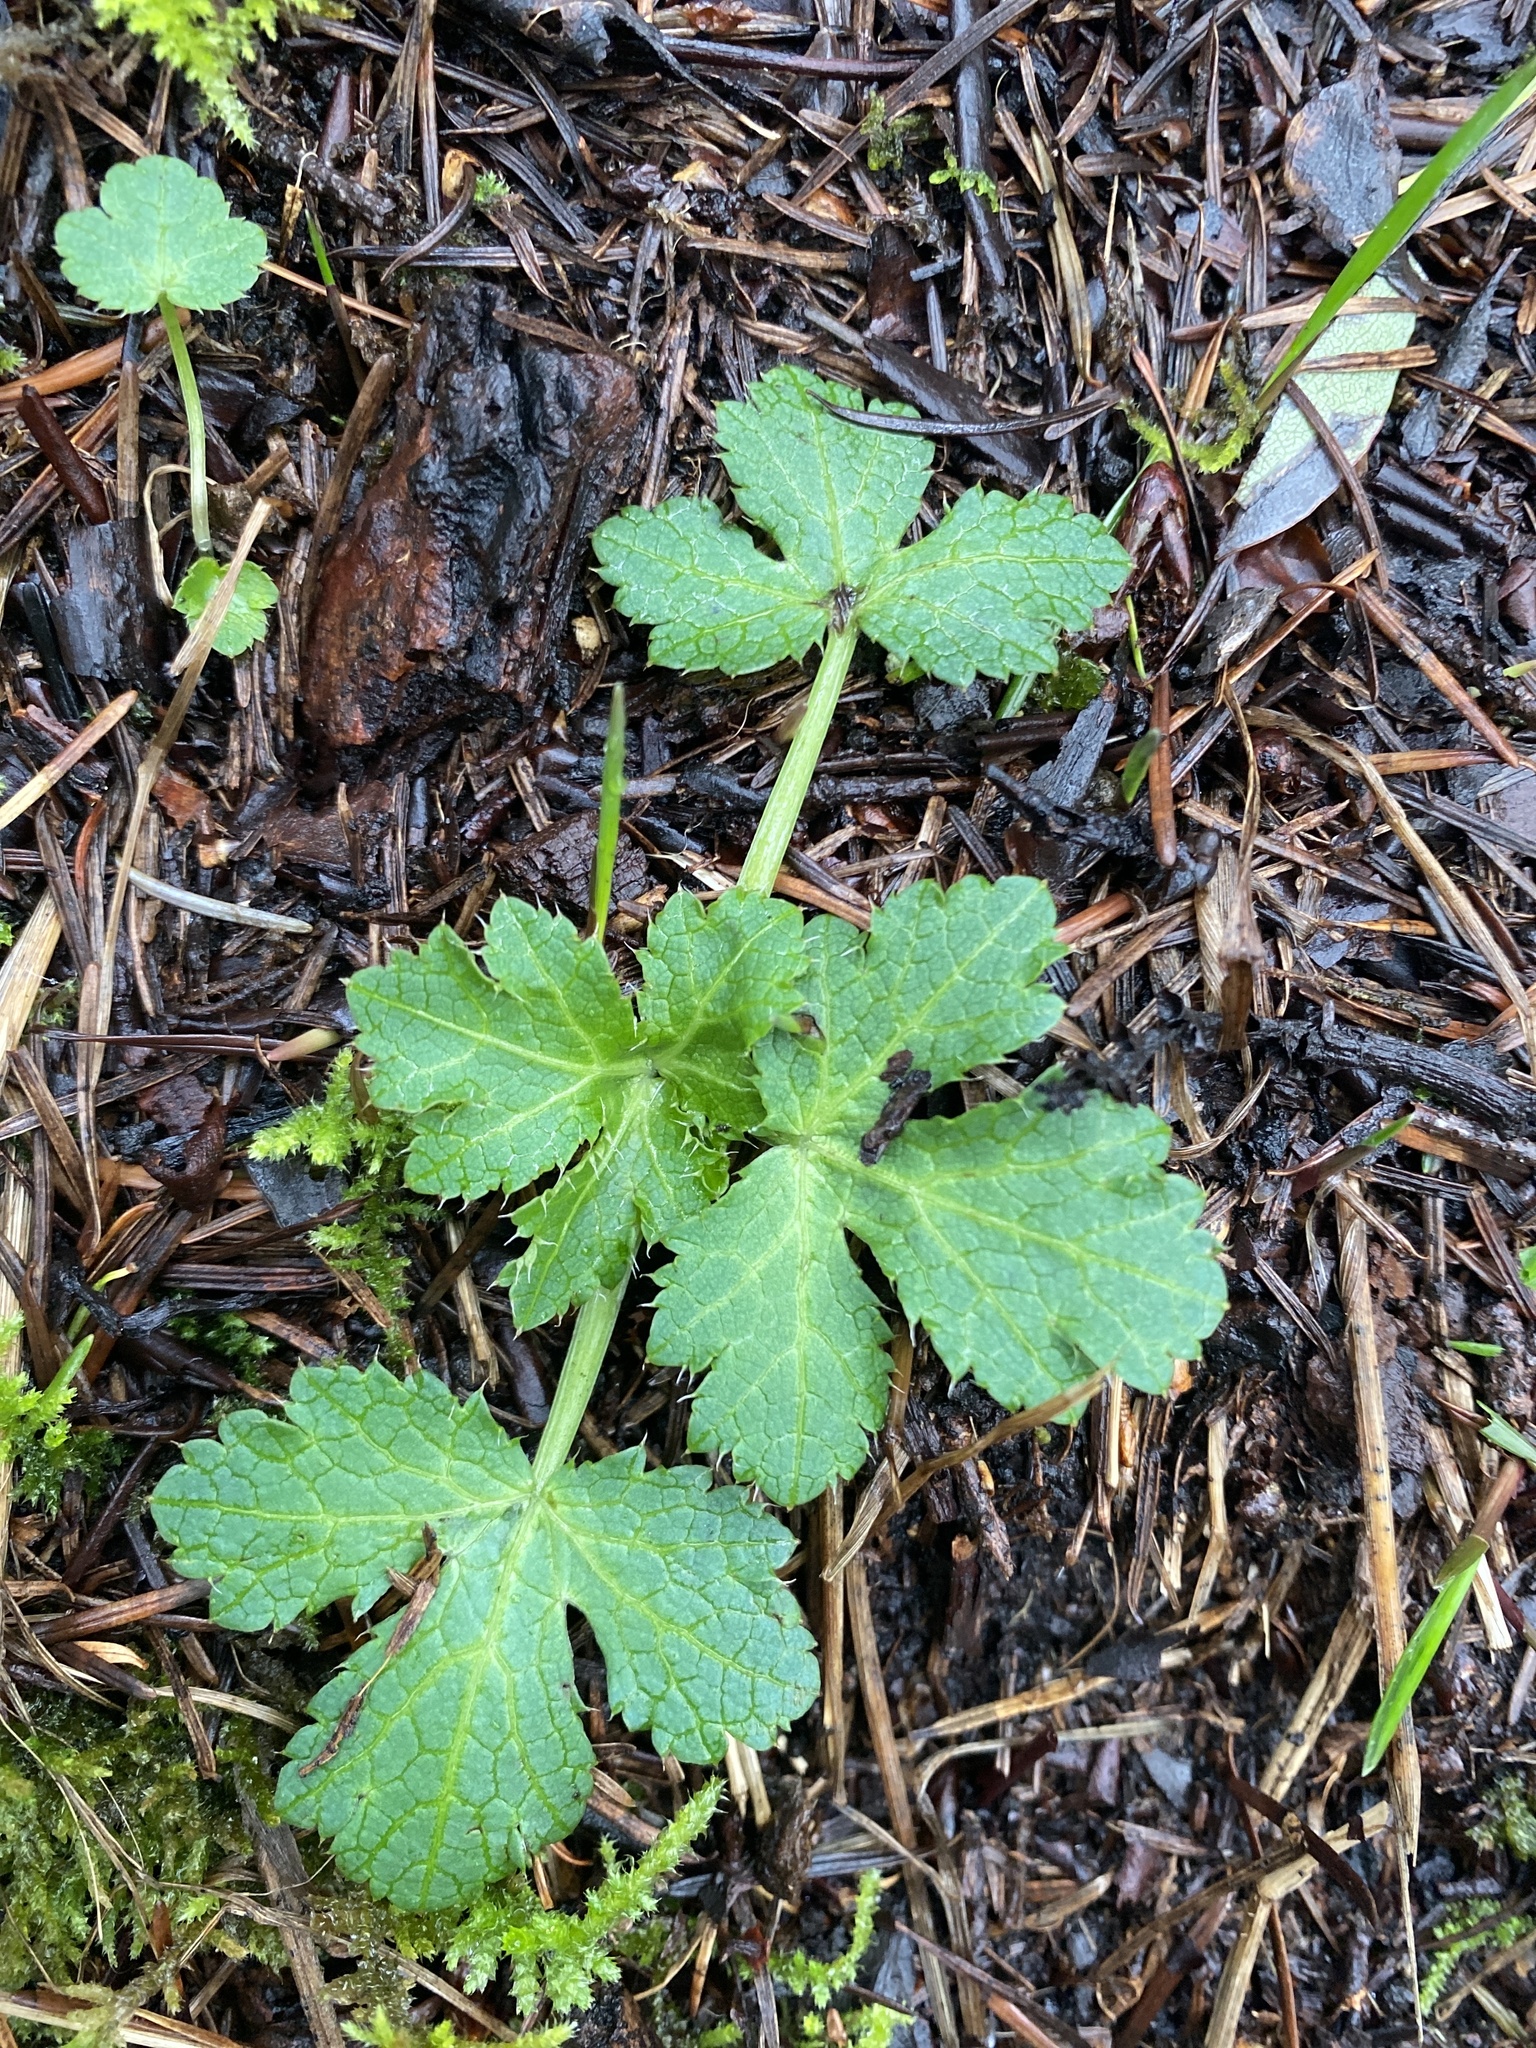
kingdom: Plantae
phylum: Tracheophyta
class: Magnoliopsida
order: Apiales
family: Apiaceae
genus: Sanicula
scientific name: Sanicula crassicaulis
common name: Western snakeroot
